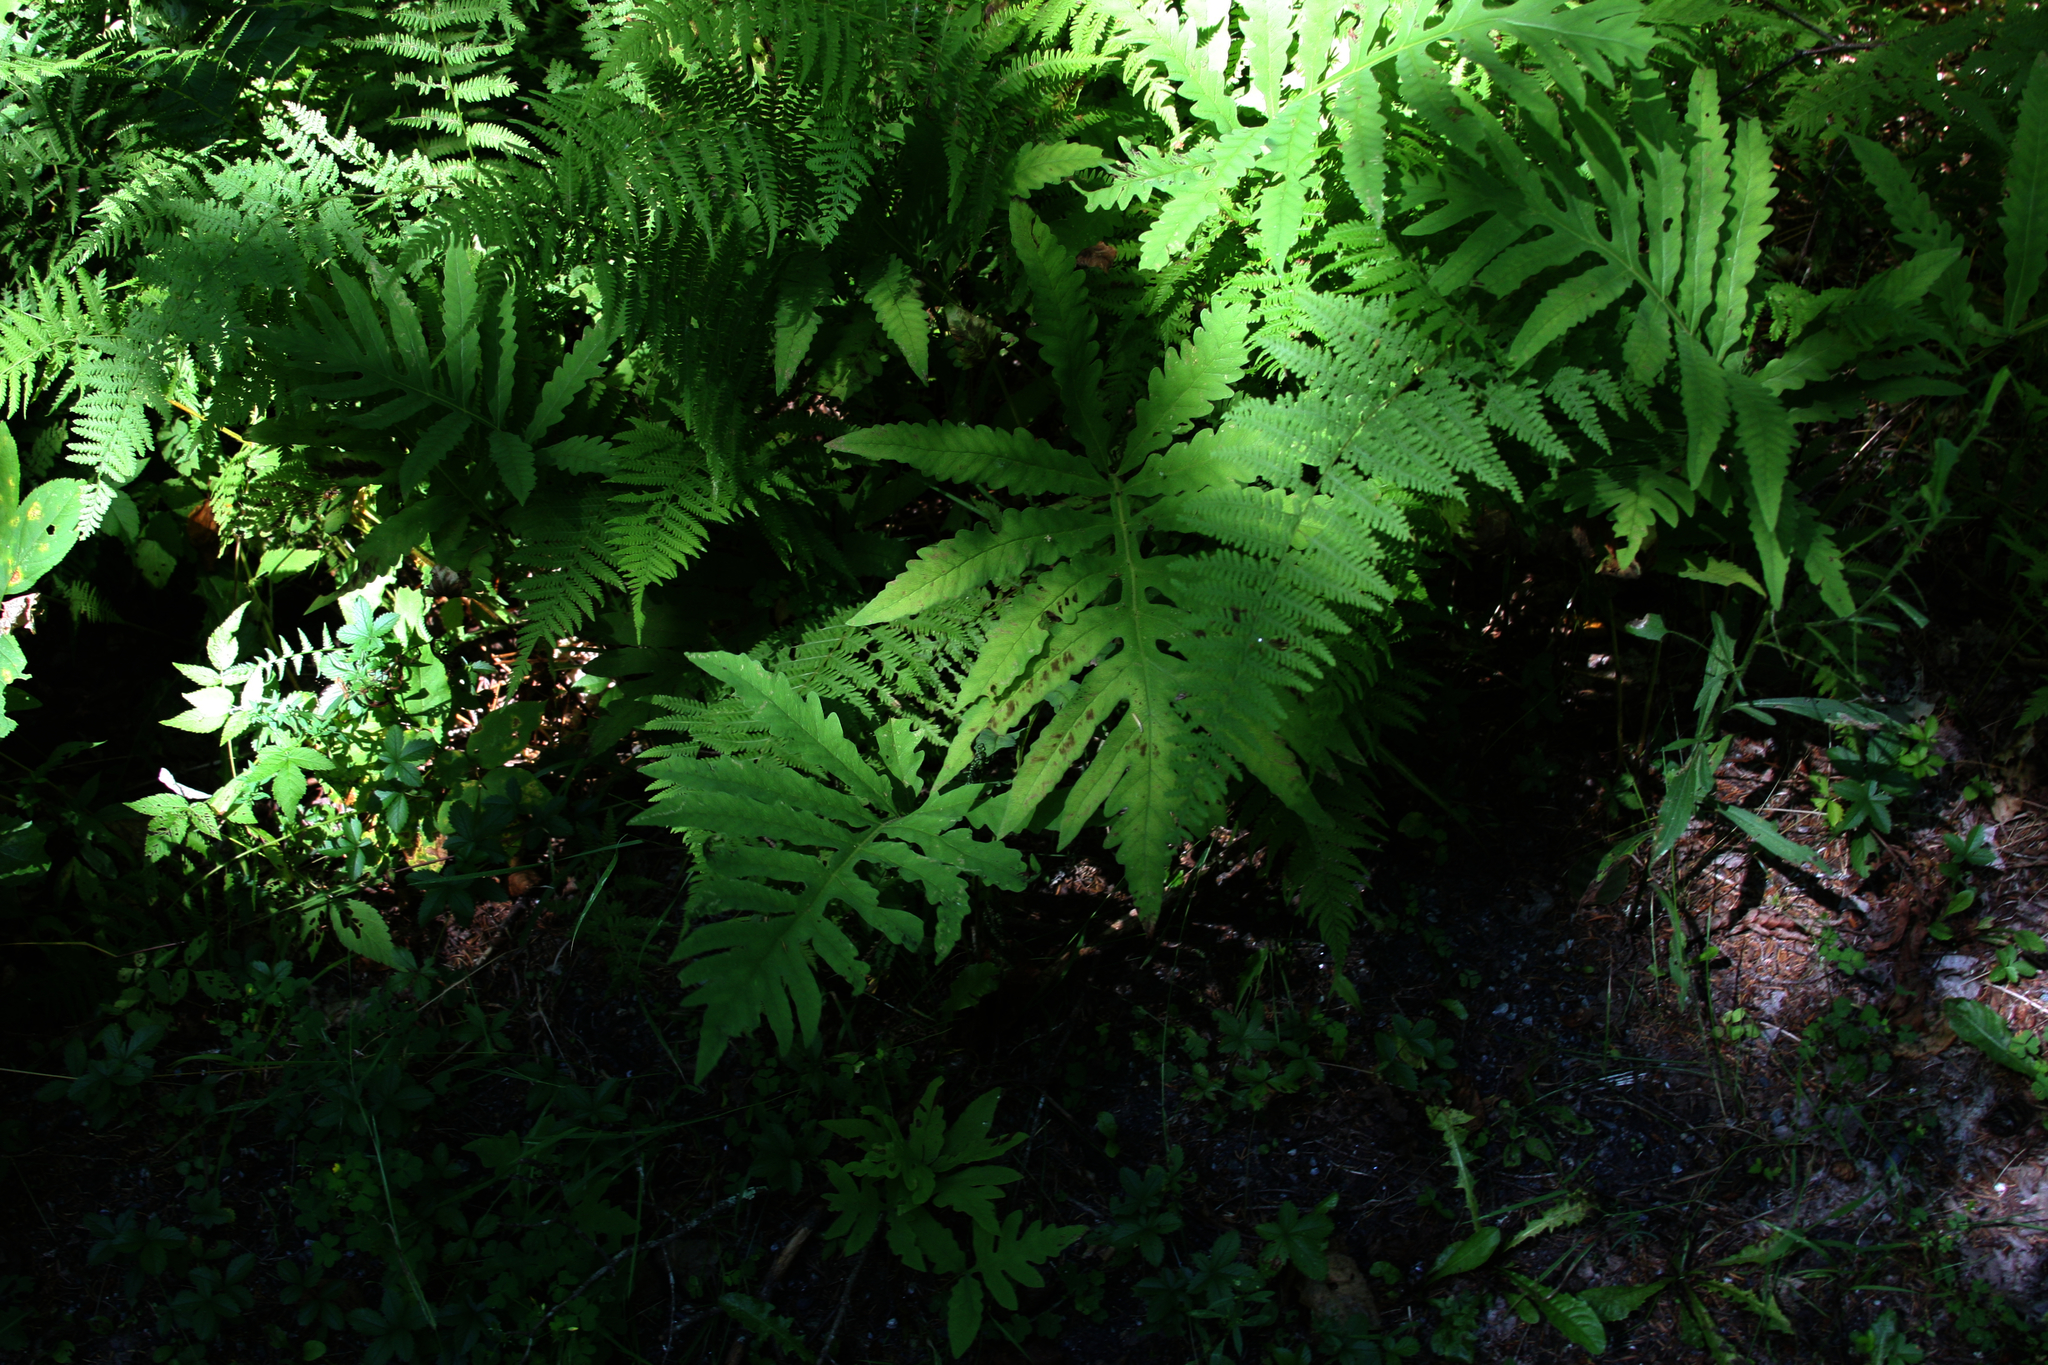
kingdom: Plantae
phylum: Tracheophyta
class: Polypodiopsida
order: Polypodiales
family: Onocleaceae
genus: Onoclea
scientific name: Onoclea sensibilis
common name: Sensitive fern
